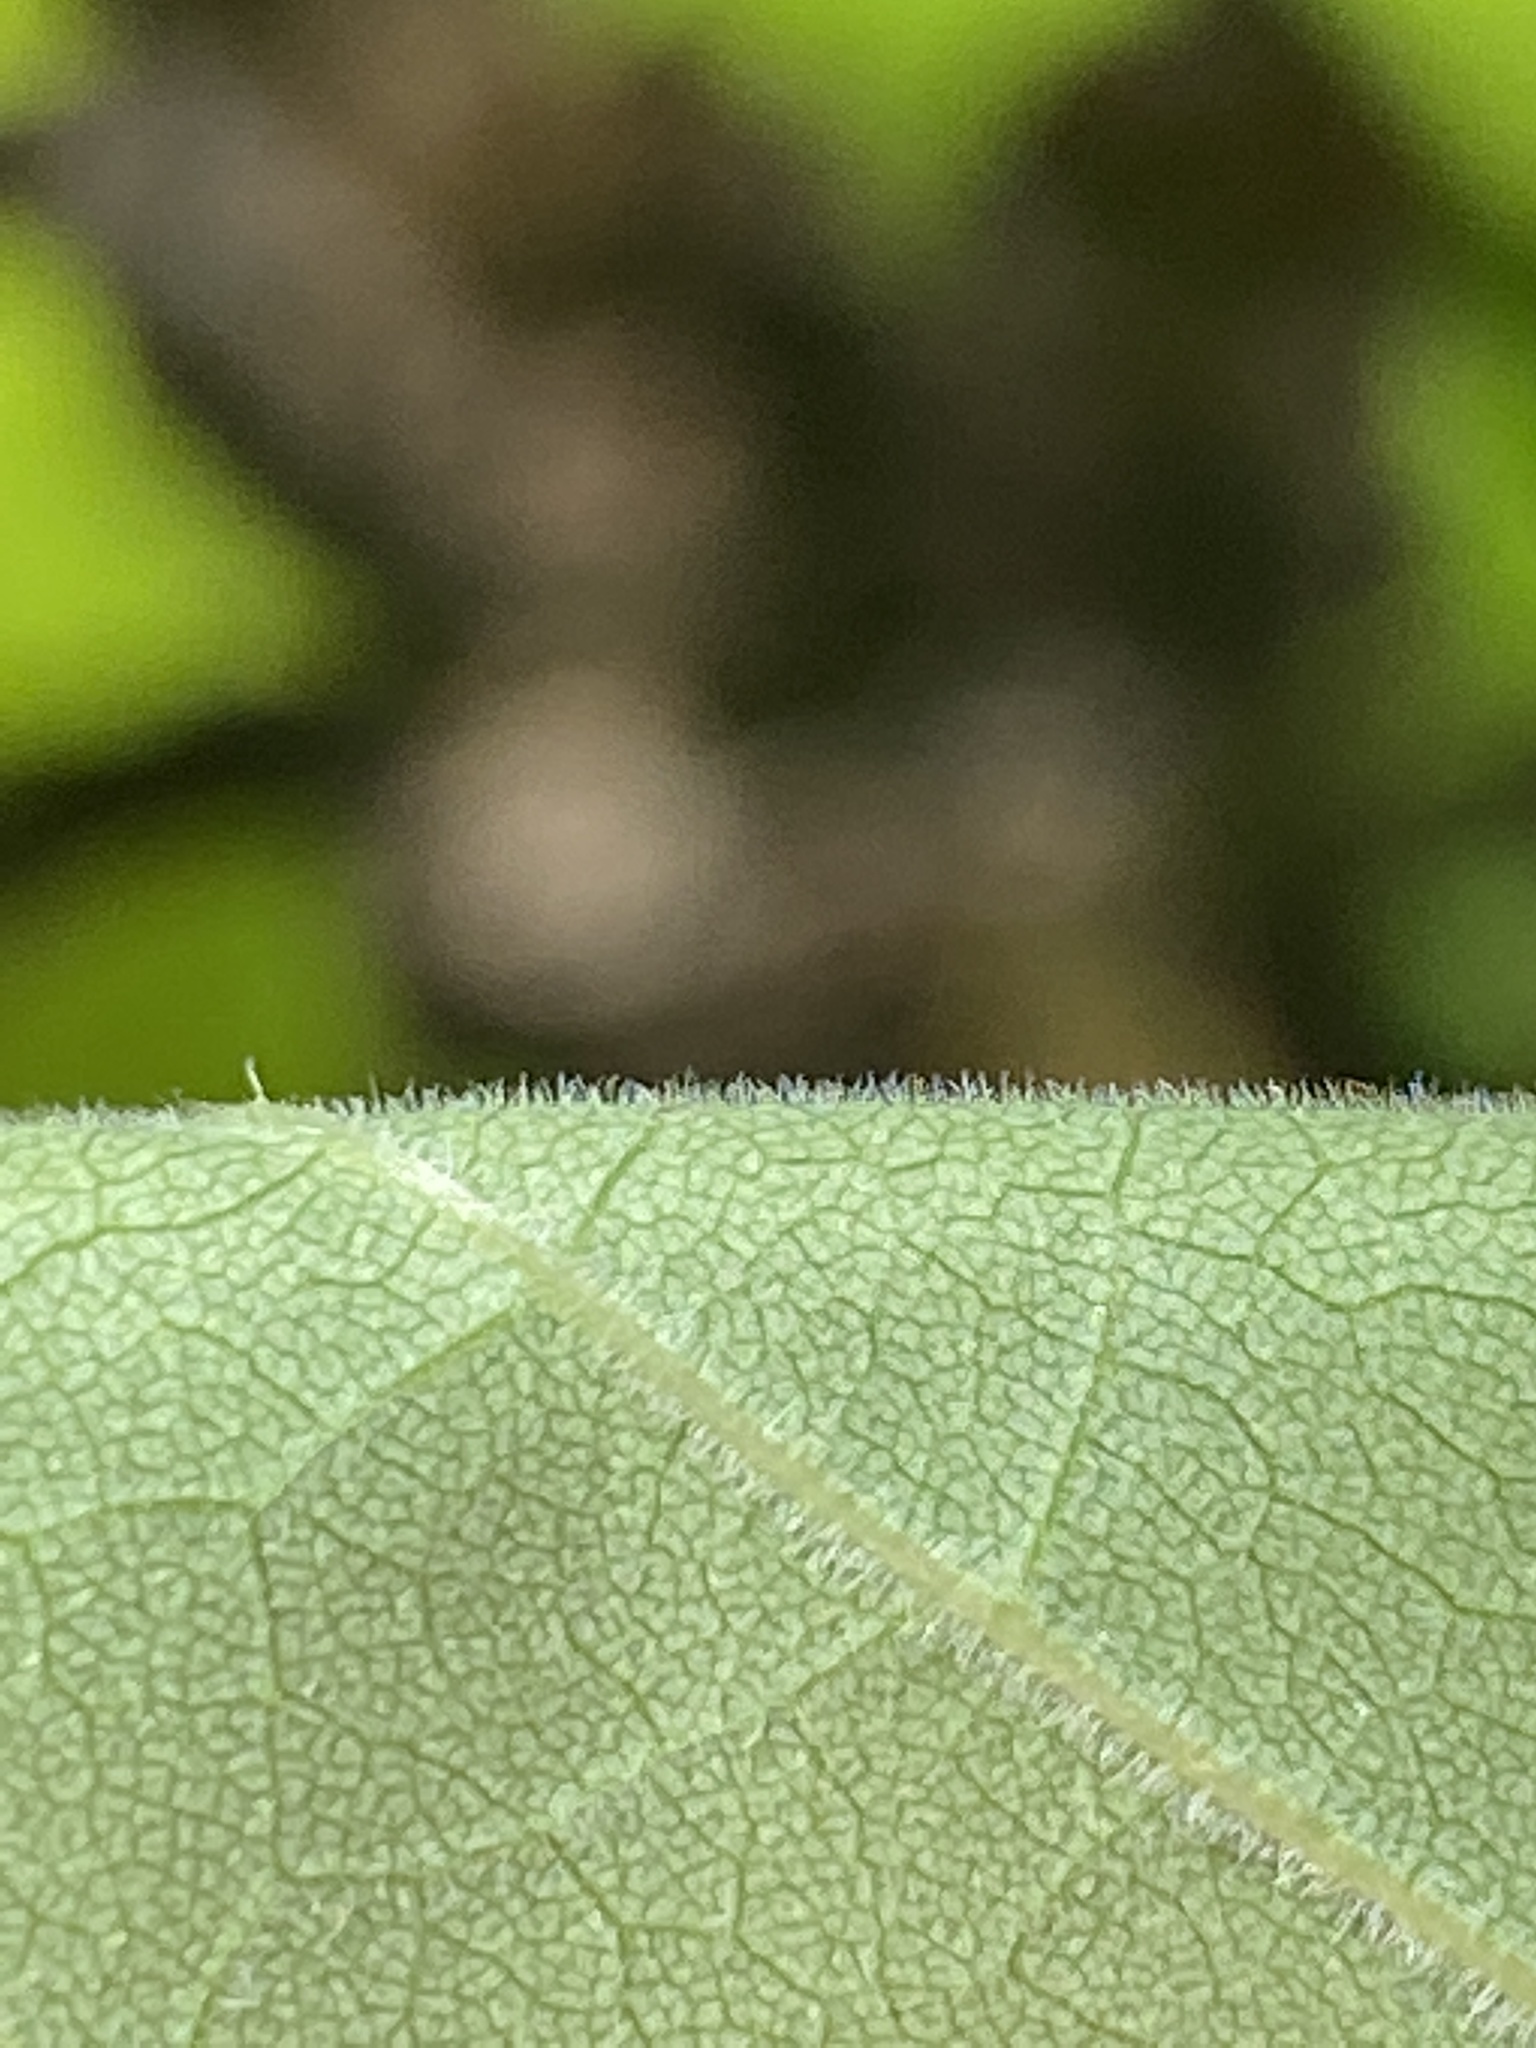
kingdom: Plantae
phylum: Tracheophyta
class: Magnoliopsida
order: Lamiales
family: Oleaceae
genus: Fraxinus
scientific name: Fraxinus americana
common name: White ash
